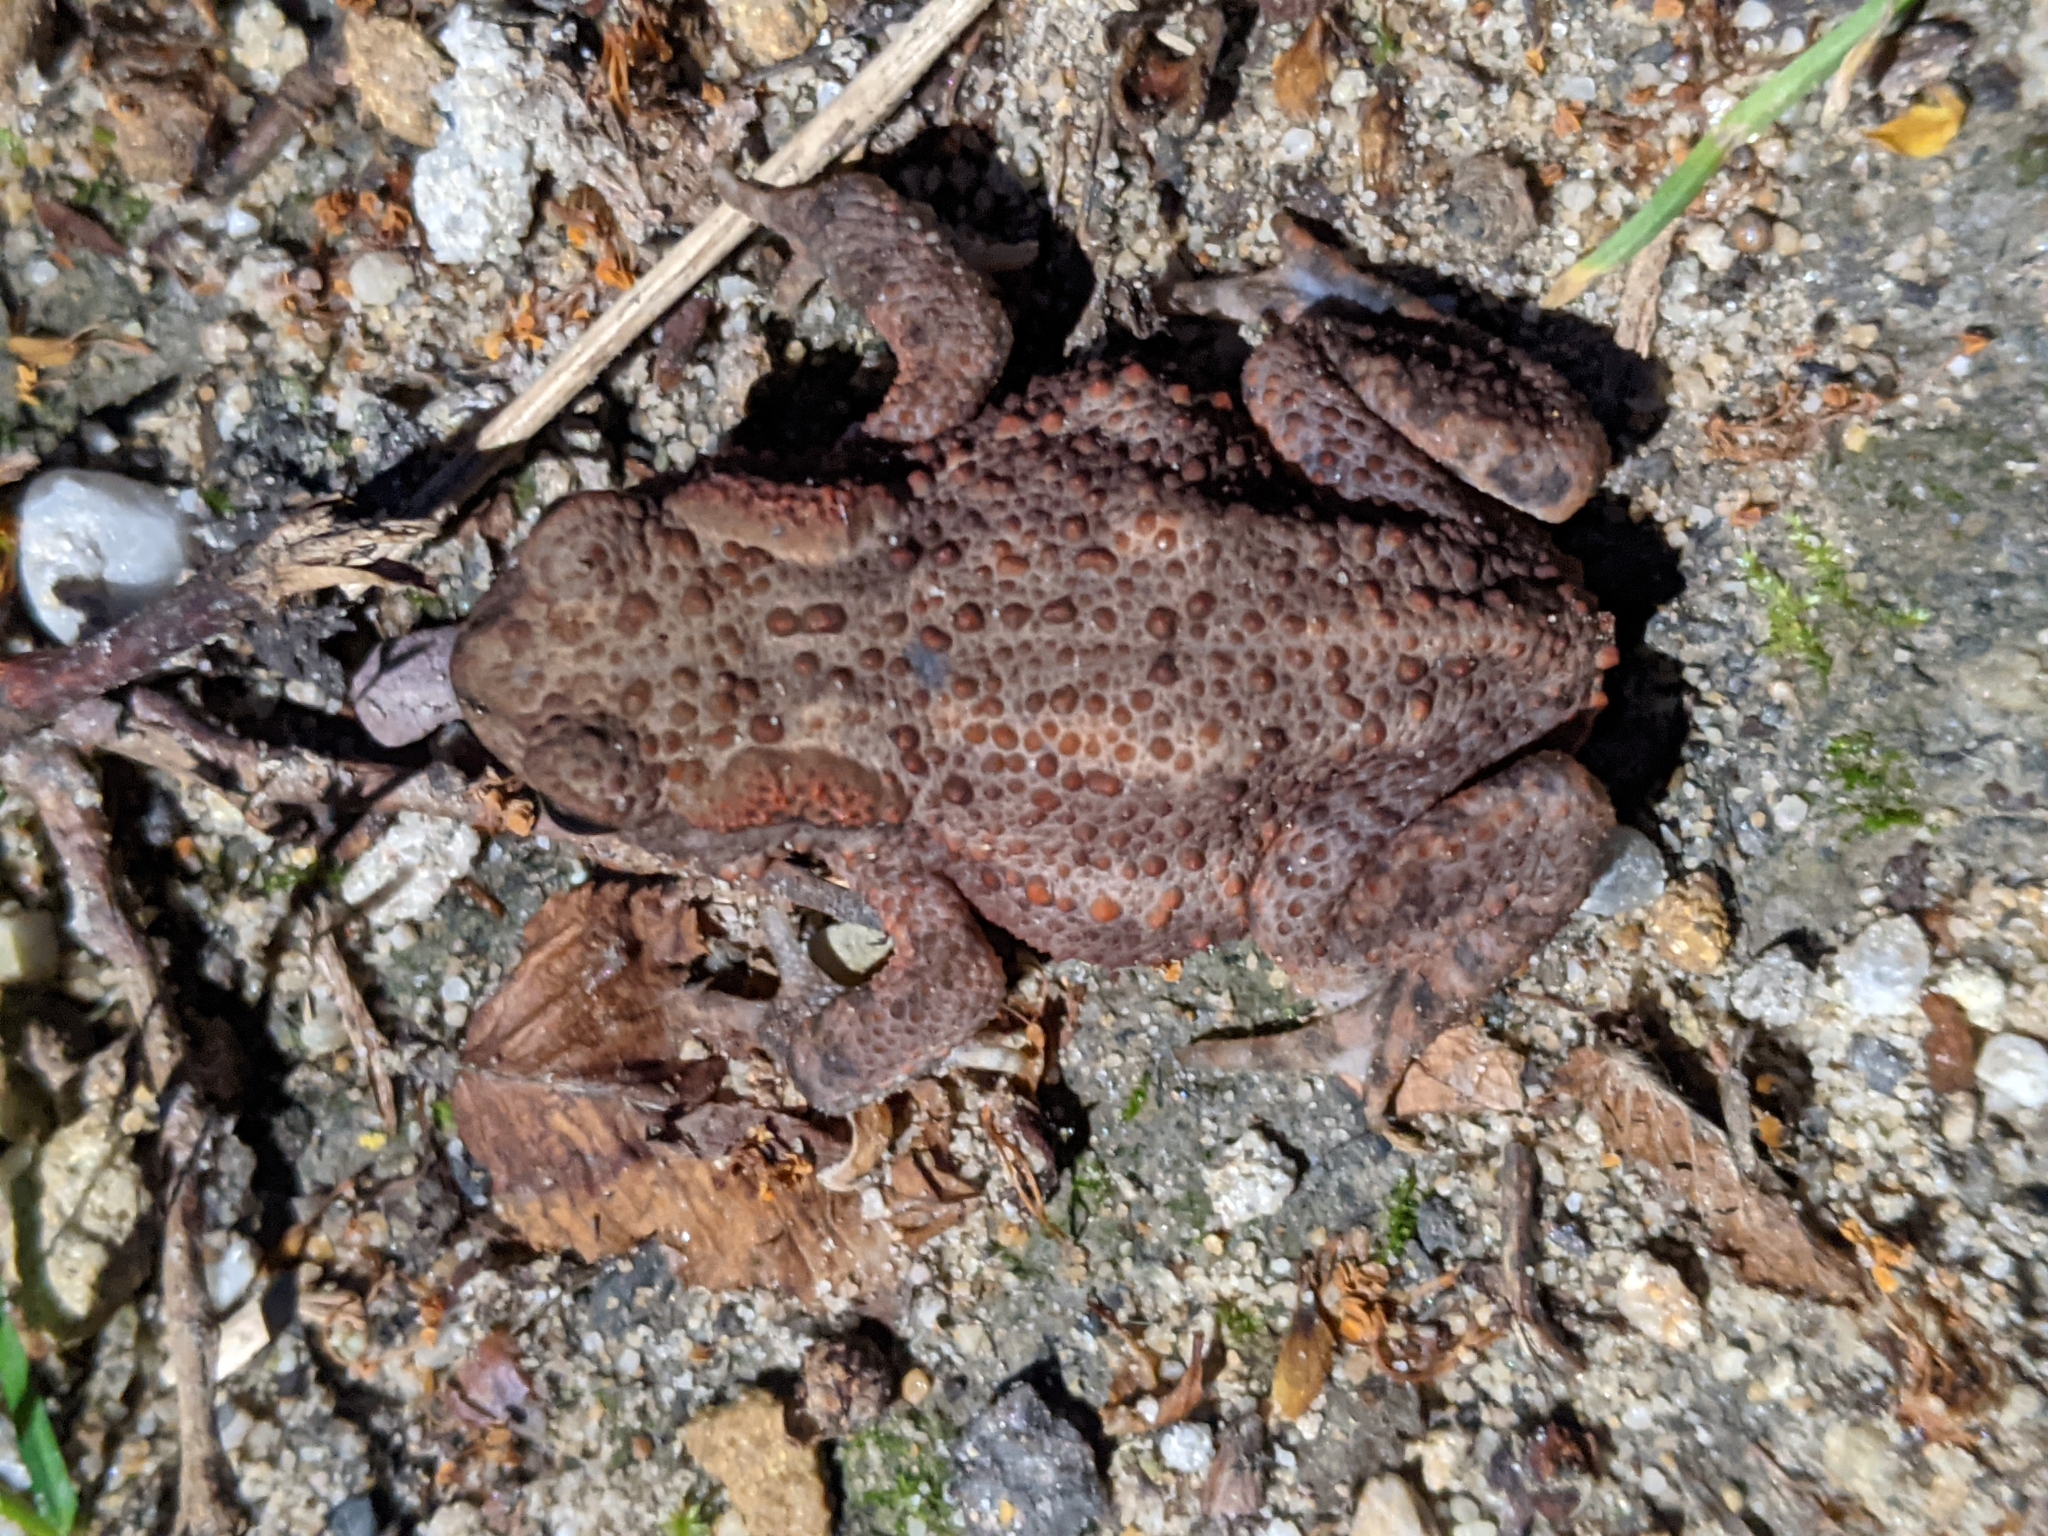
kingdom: Animalia
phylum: Chordata
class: Amphibia
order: Anura
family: Bufonidae
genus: Bufo
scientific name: Bufo bufo
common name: Common toad
